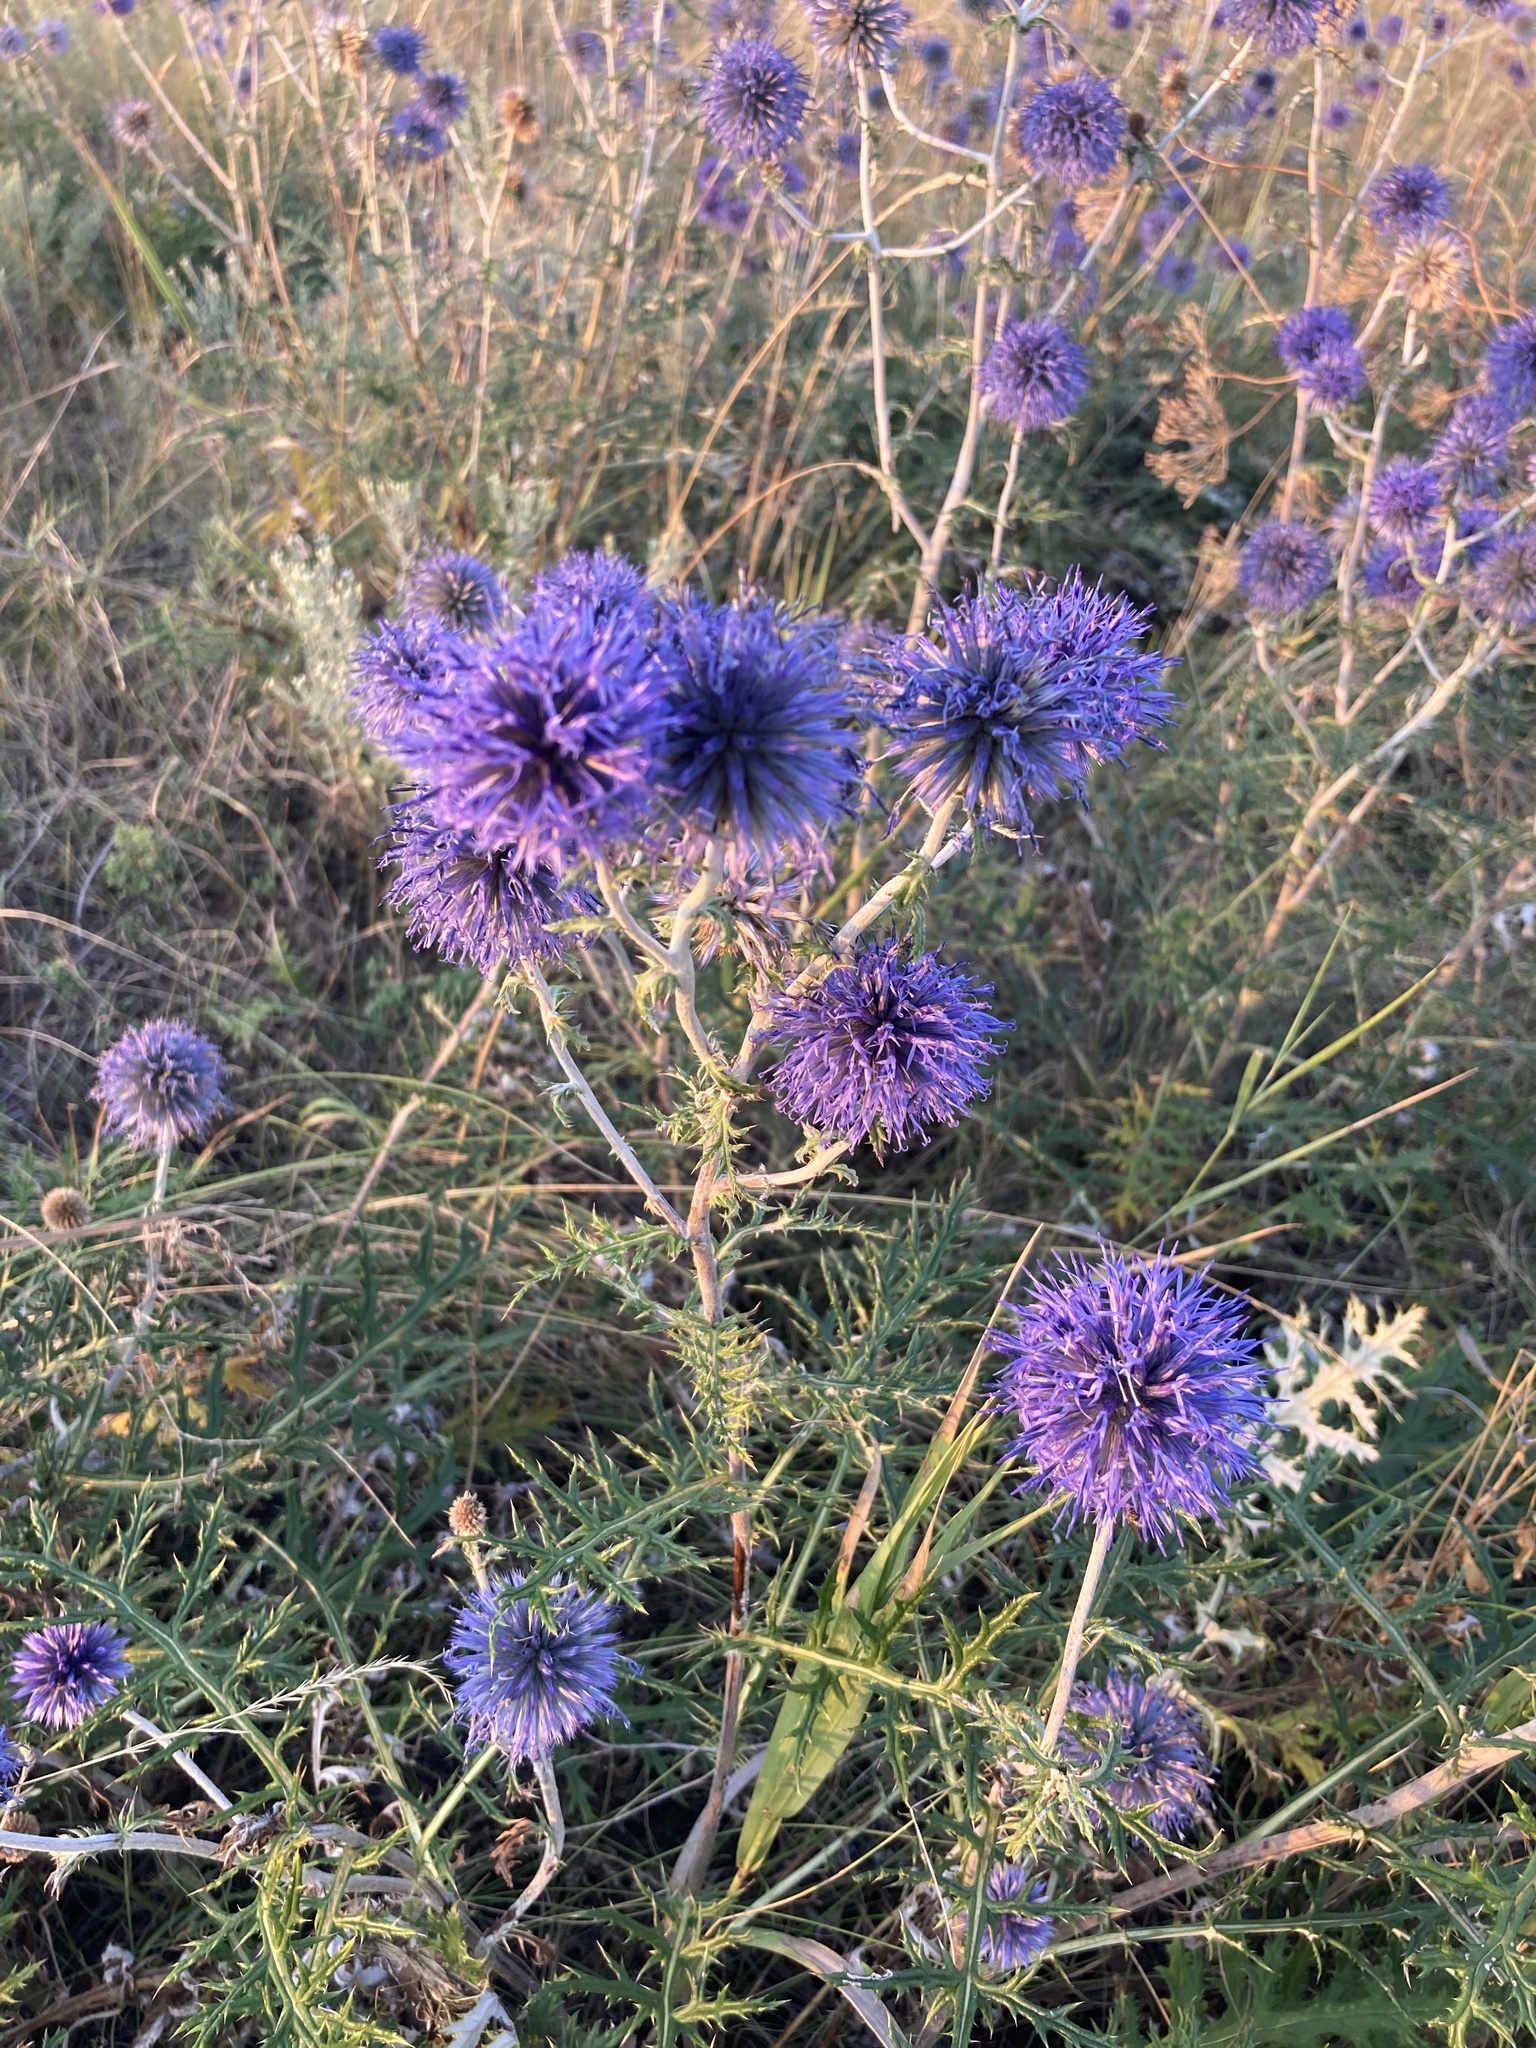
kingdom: Plantae
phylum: Tracheophyta
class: Magnoliopsida
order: Asterales
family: Asteraceae
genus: Echinops
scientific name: Echinops ritro
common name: Globe thistle
